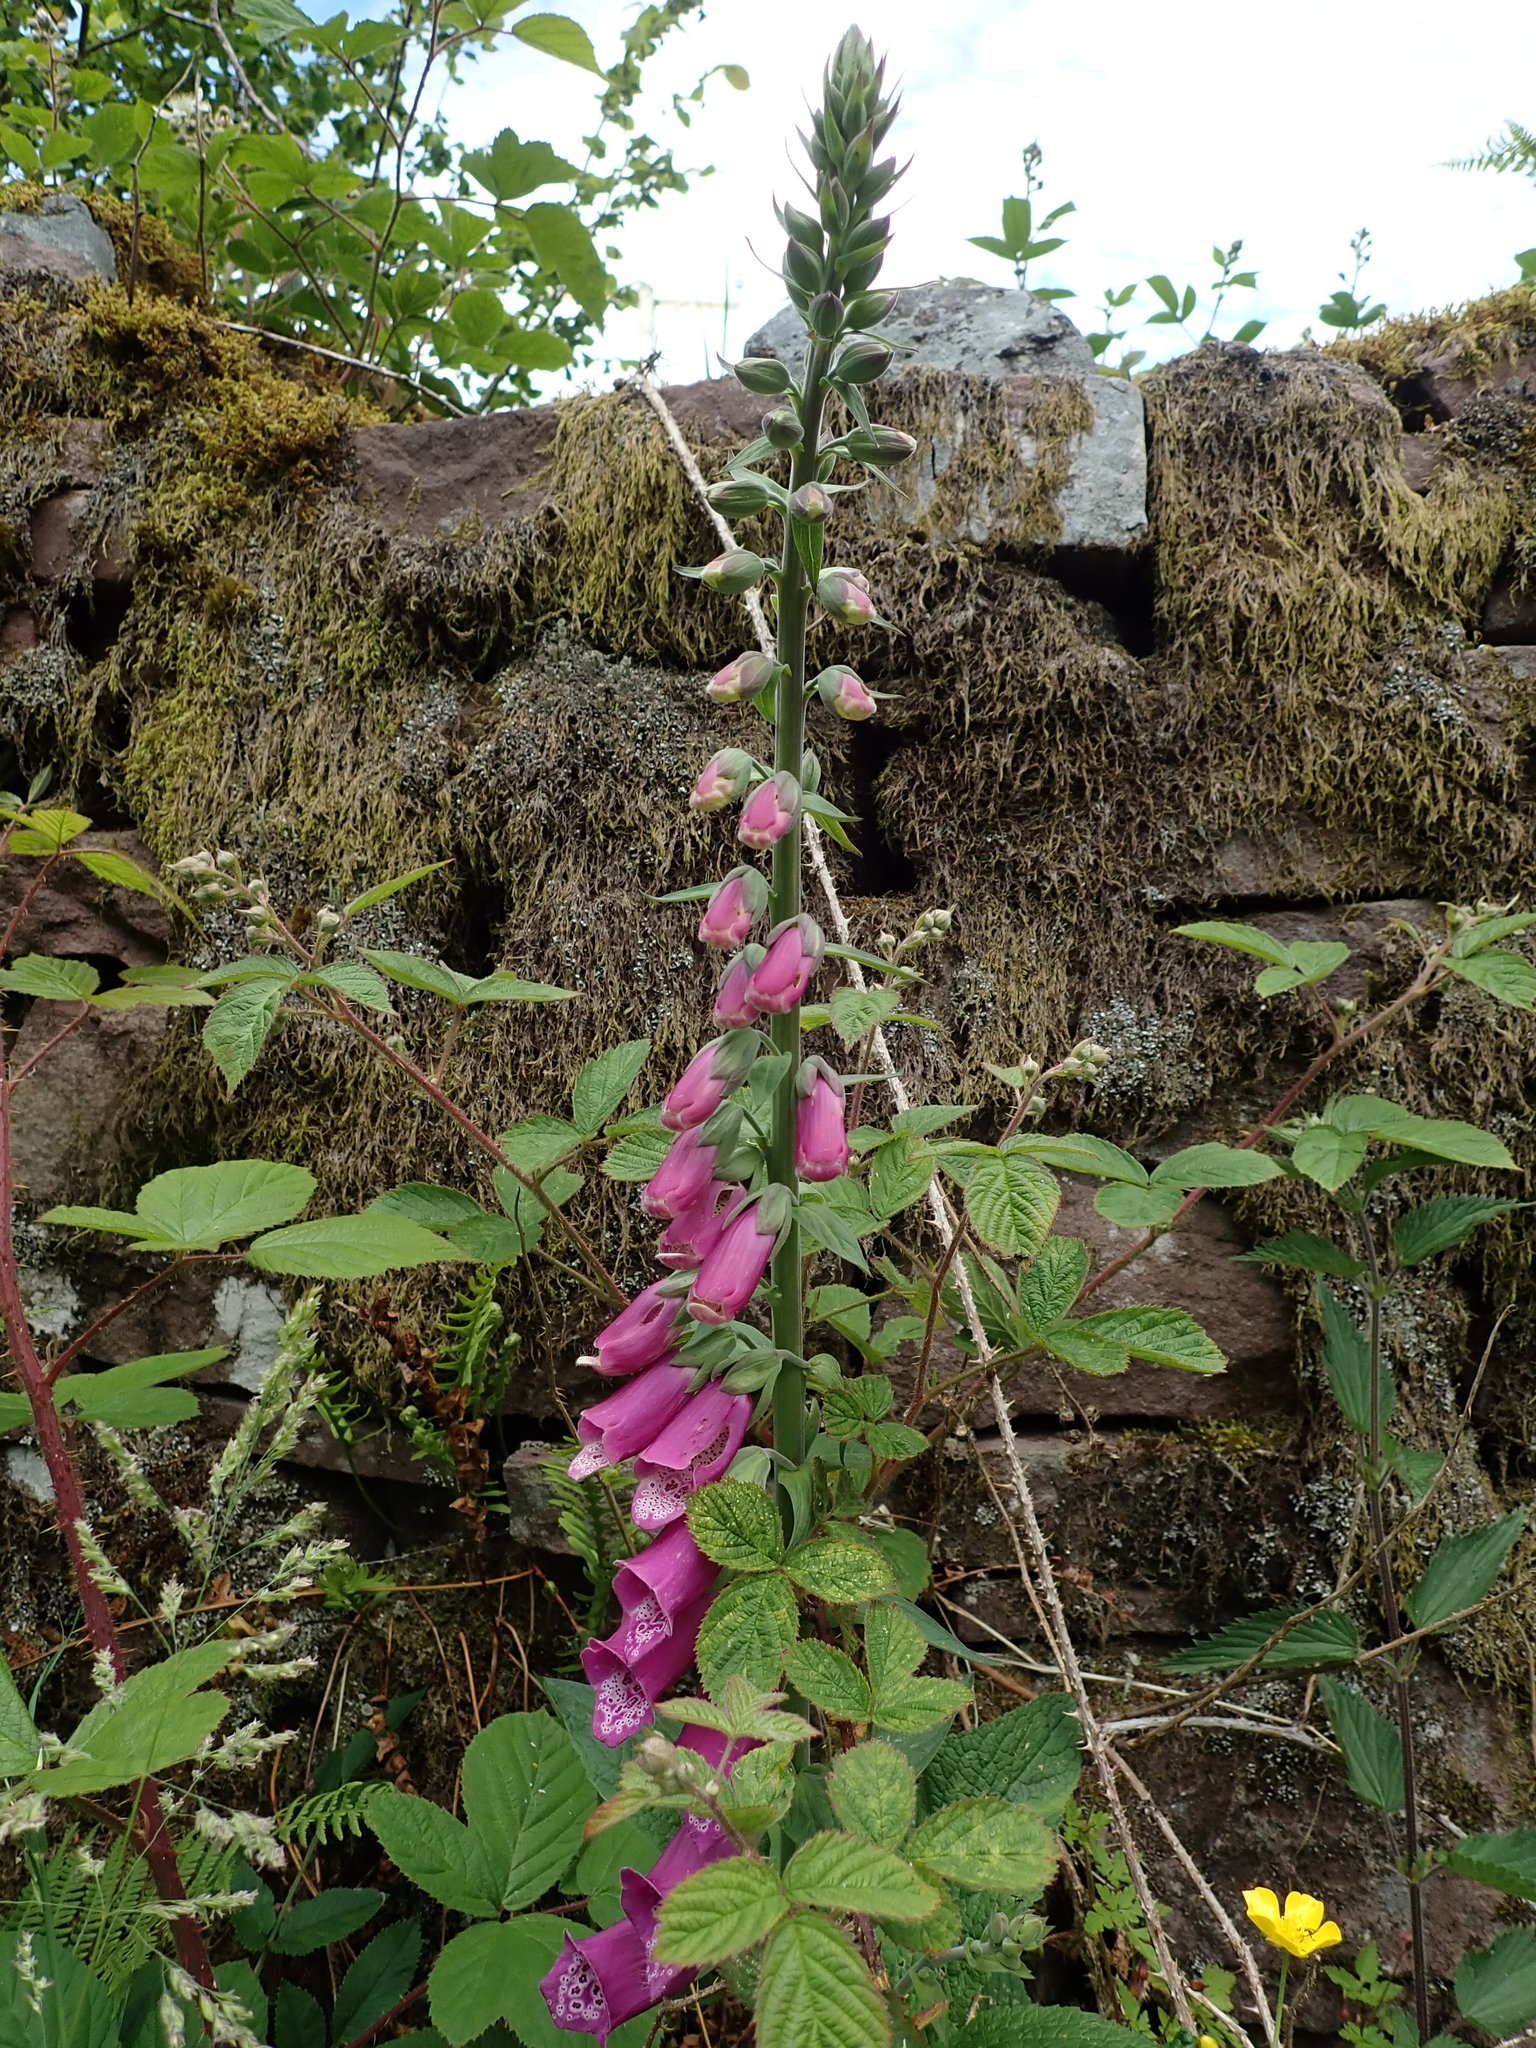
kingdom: Plantae
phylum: Tracheophyta
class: Magnoliopsida
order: Lamiales
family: Plantaginaceae
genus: Digitalis
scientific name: Digitalis purpurea
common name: Foxglove
